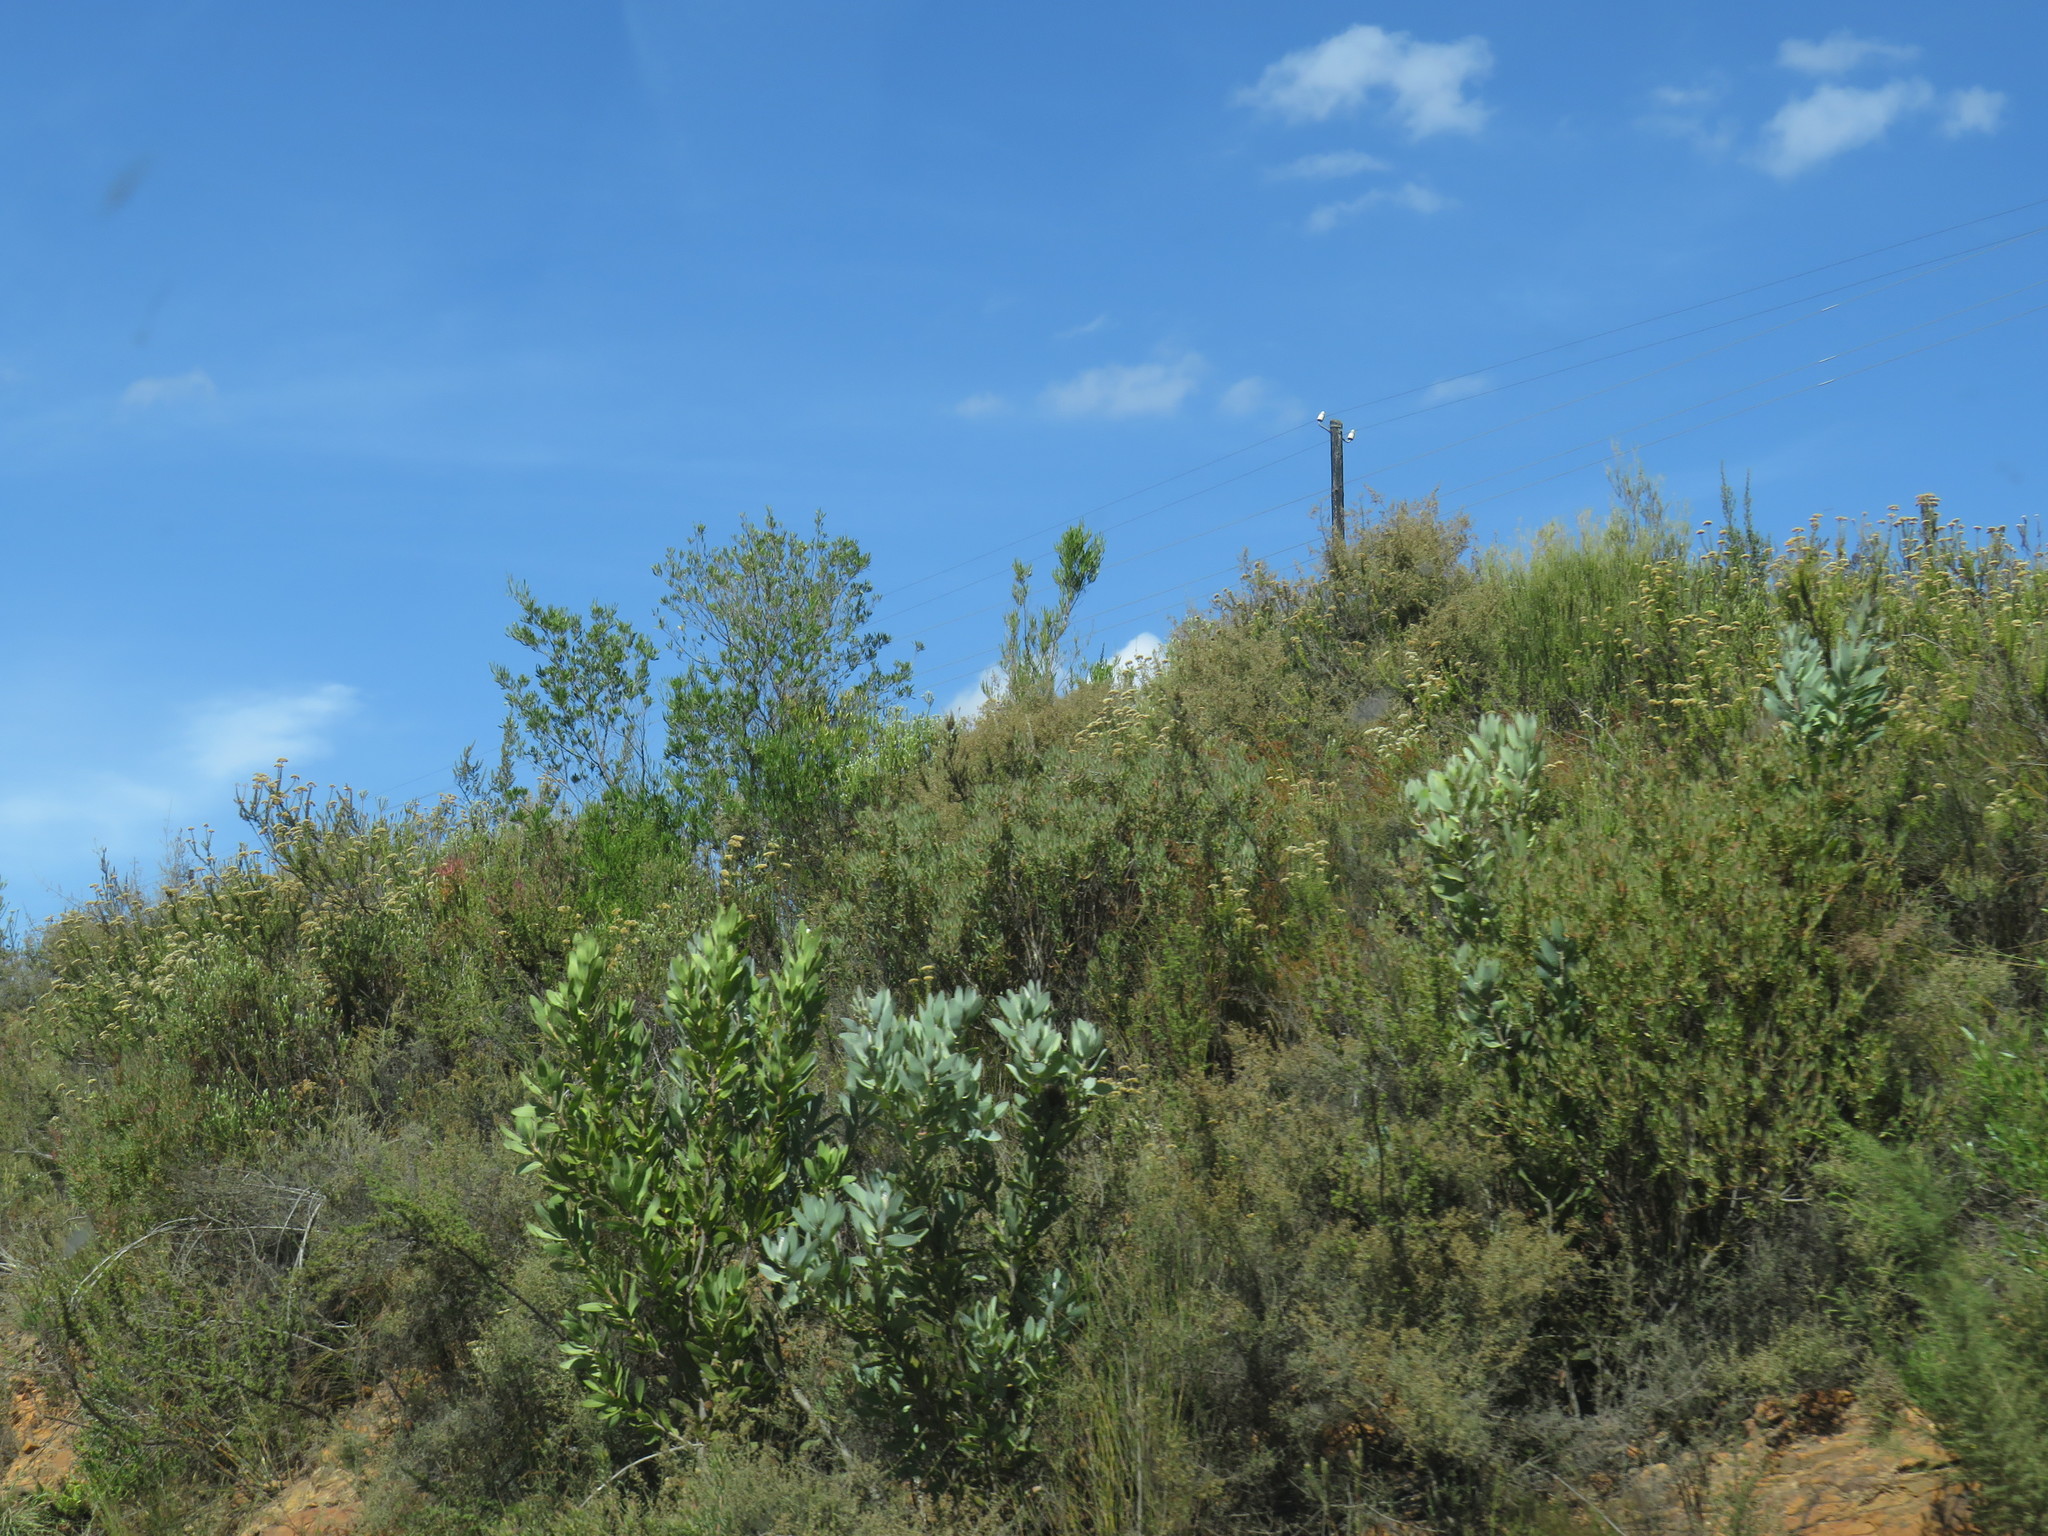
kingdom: Plantae
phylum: Tracheophyta
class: Magnoliopsida
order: Proteales
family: Proteaceae
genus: Protea
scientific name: Protea laurifolia
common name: Grey-leaf sugarbsh
